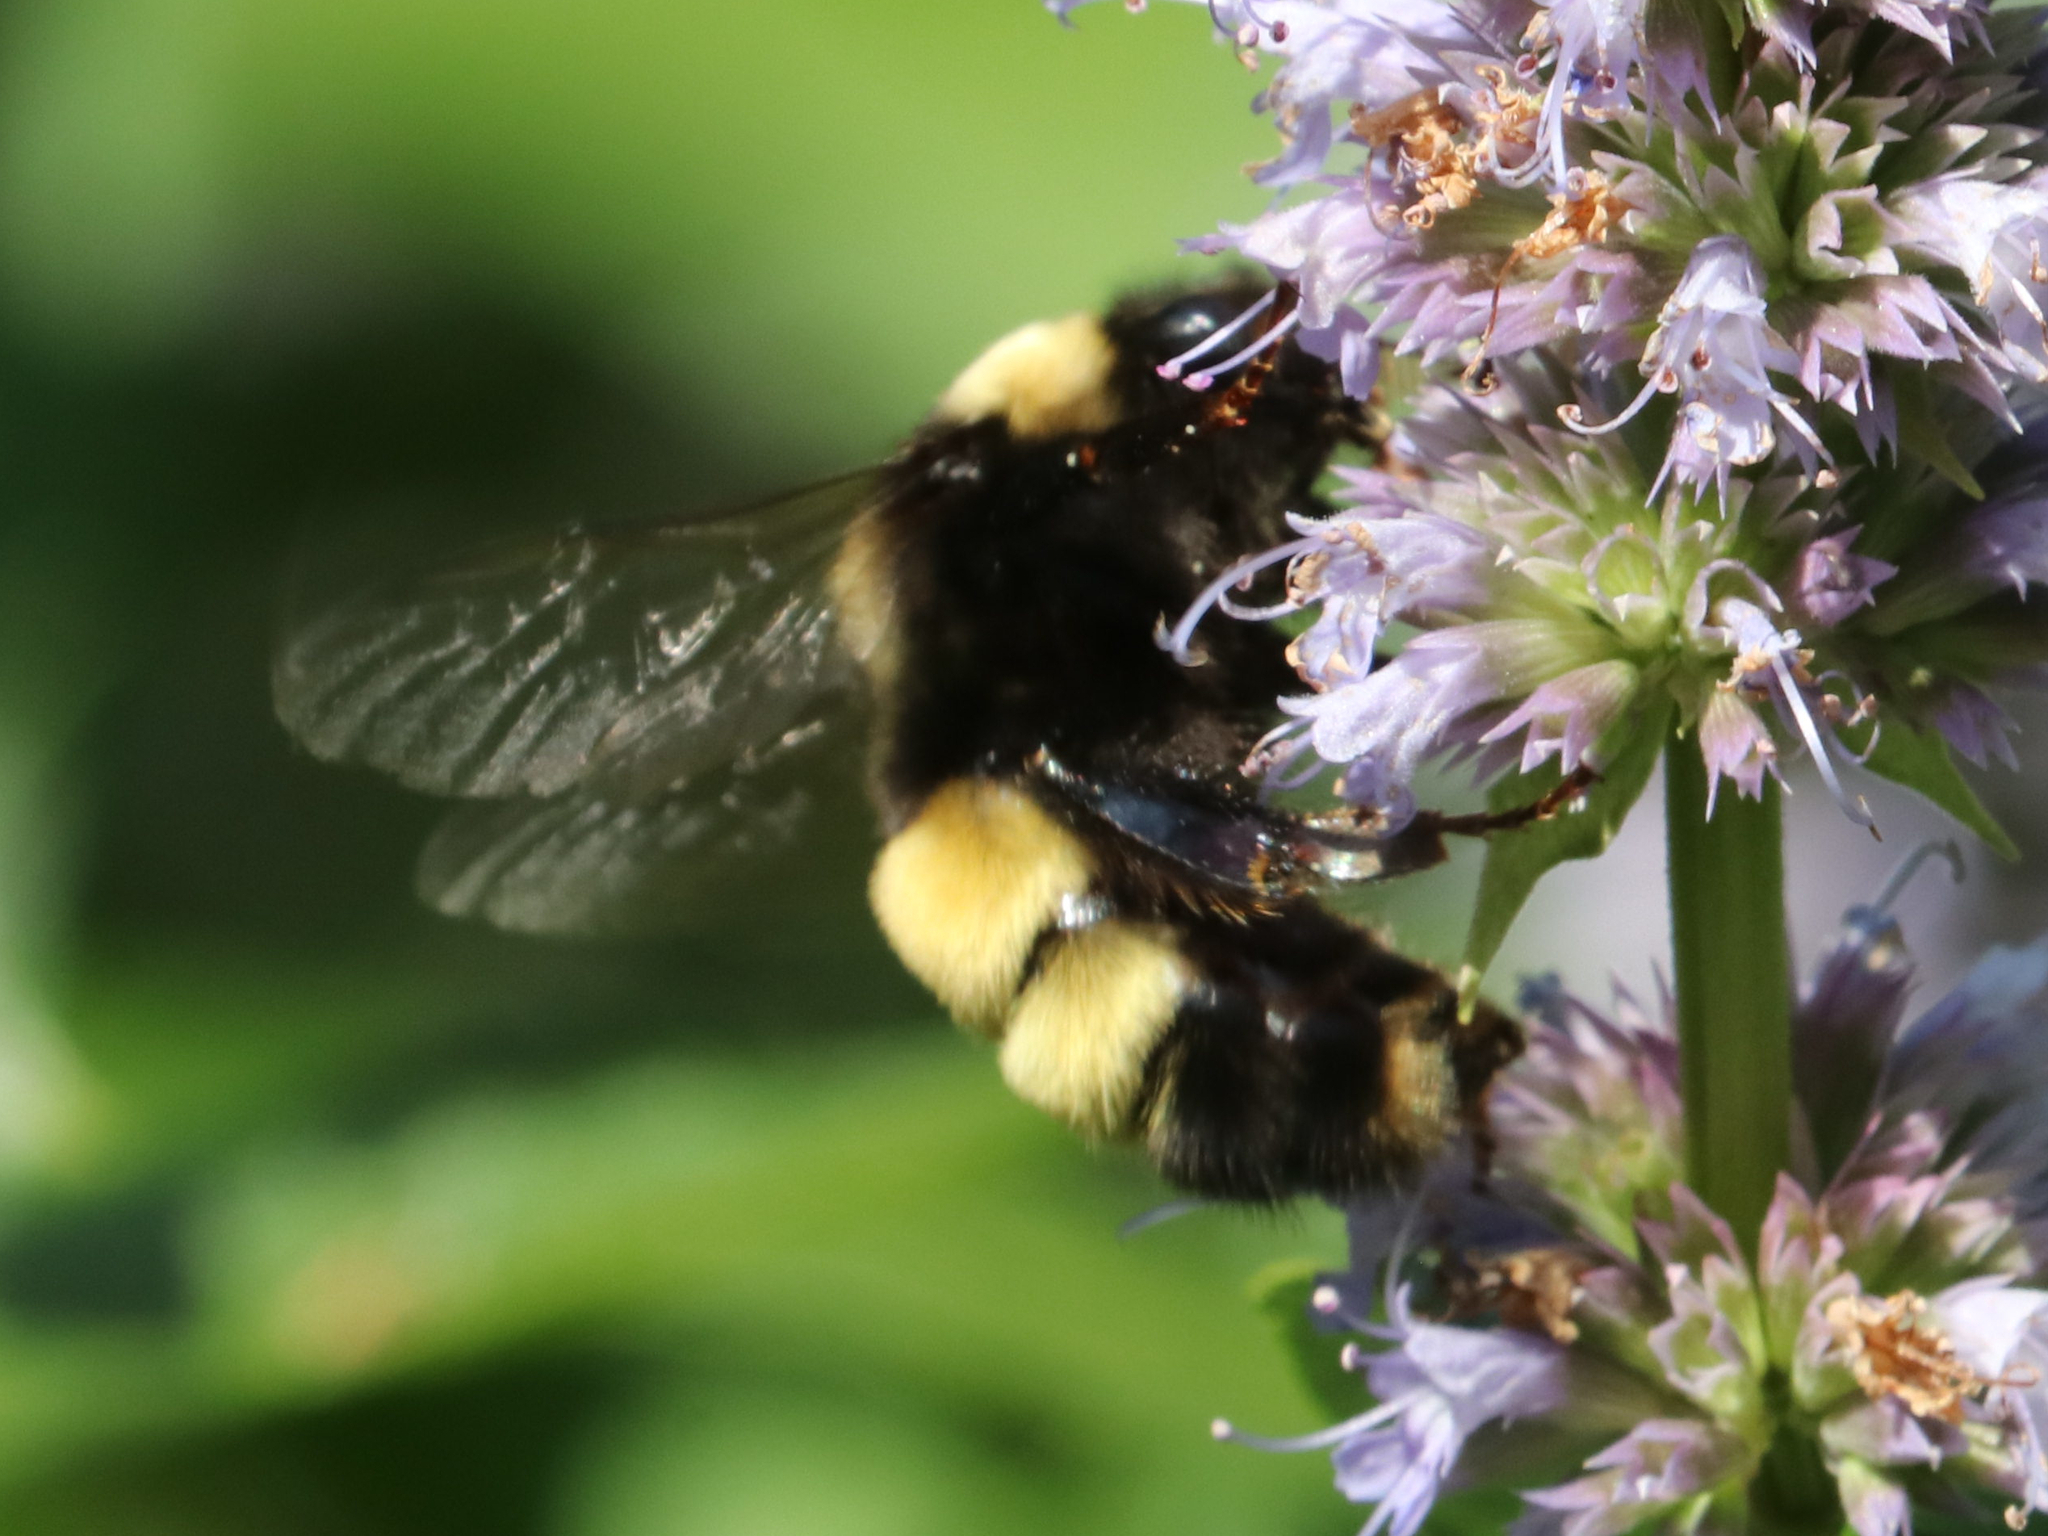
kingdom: Animalia
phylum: Arthropoda
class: Insecta
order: Hymenoptera
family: Apidae
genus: Bombus
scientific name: Bombus terricola
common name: Yellow-banded bumble bee
